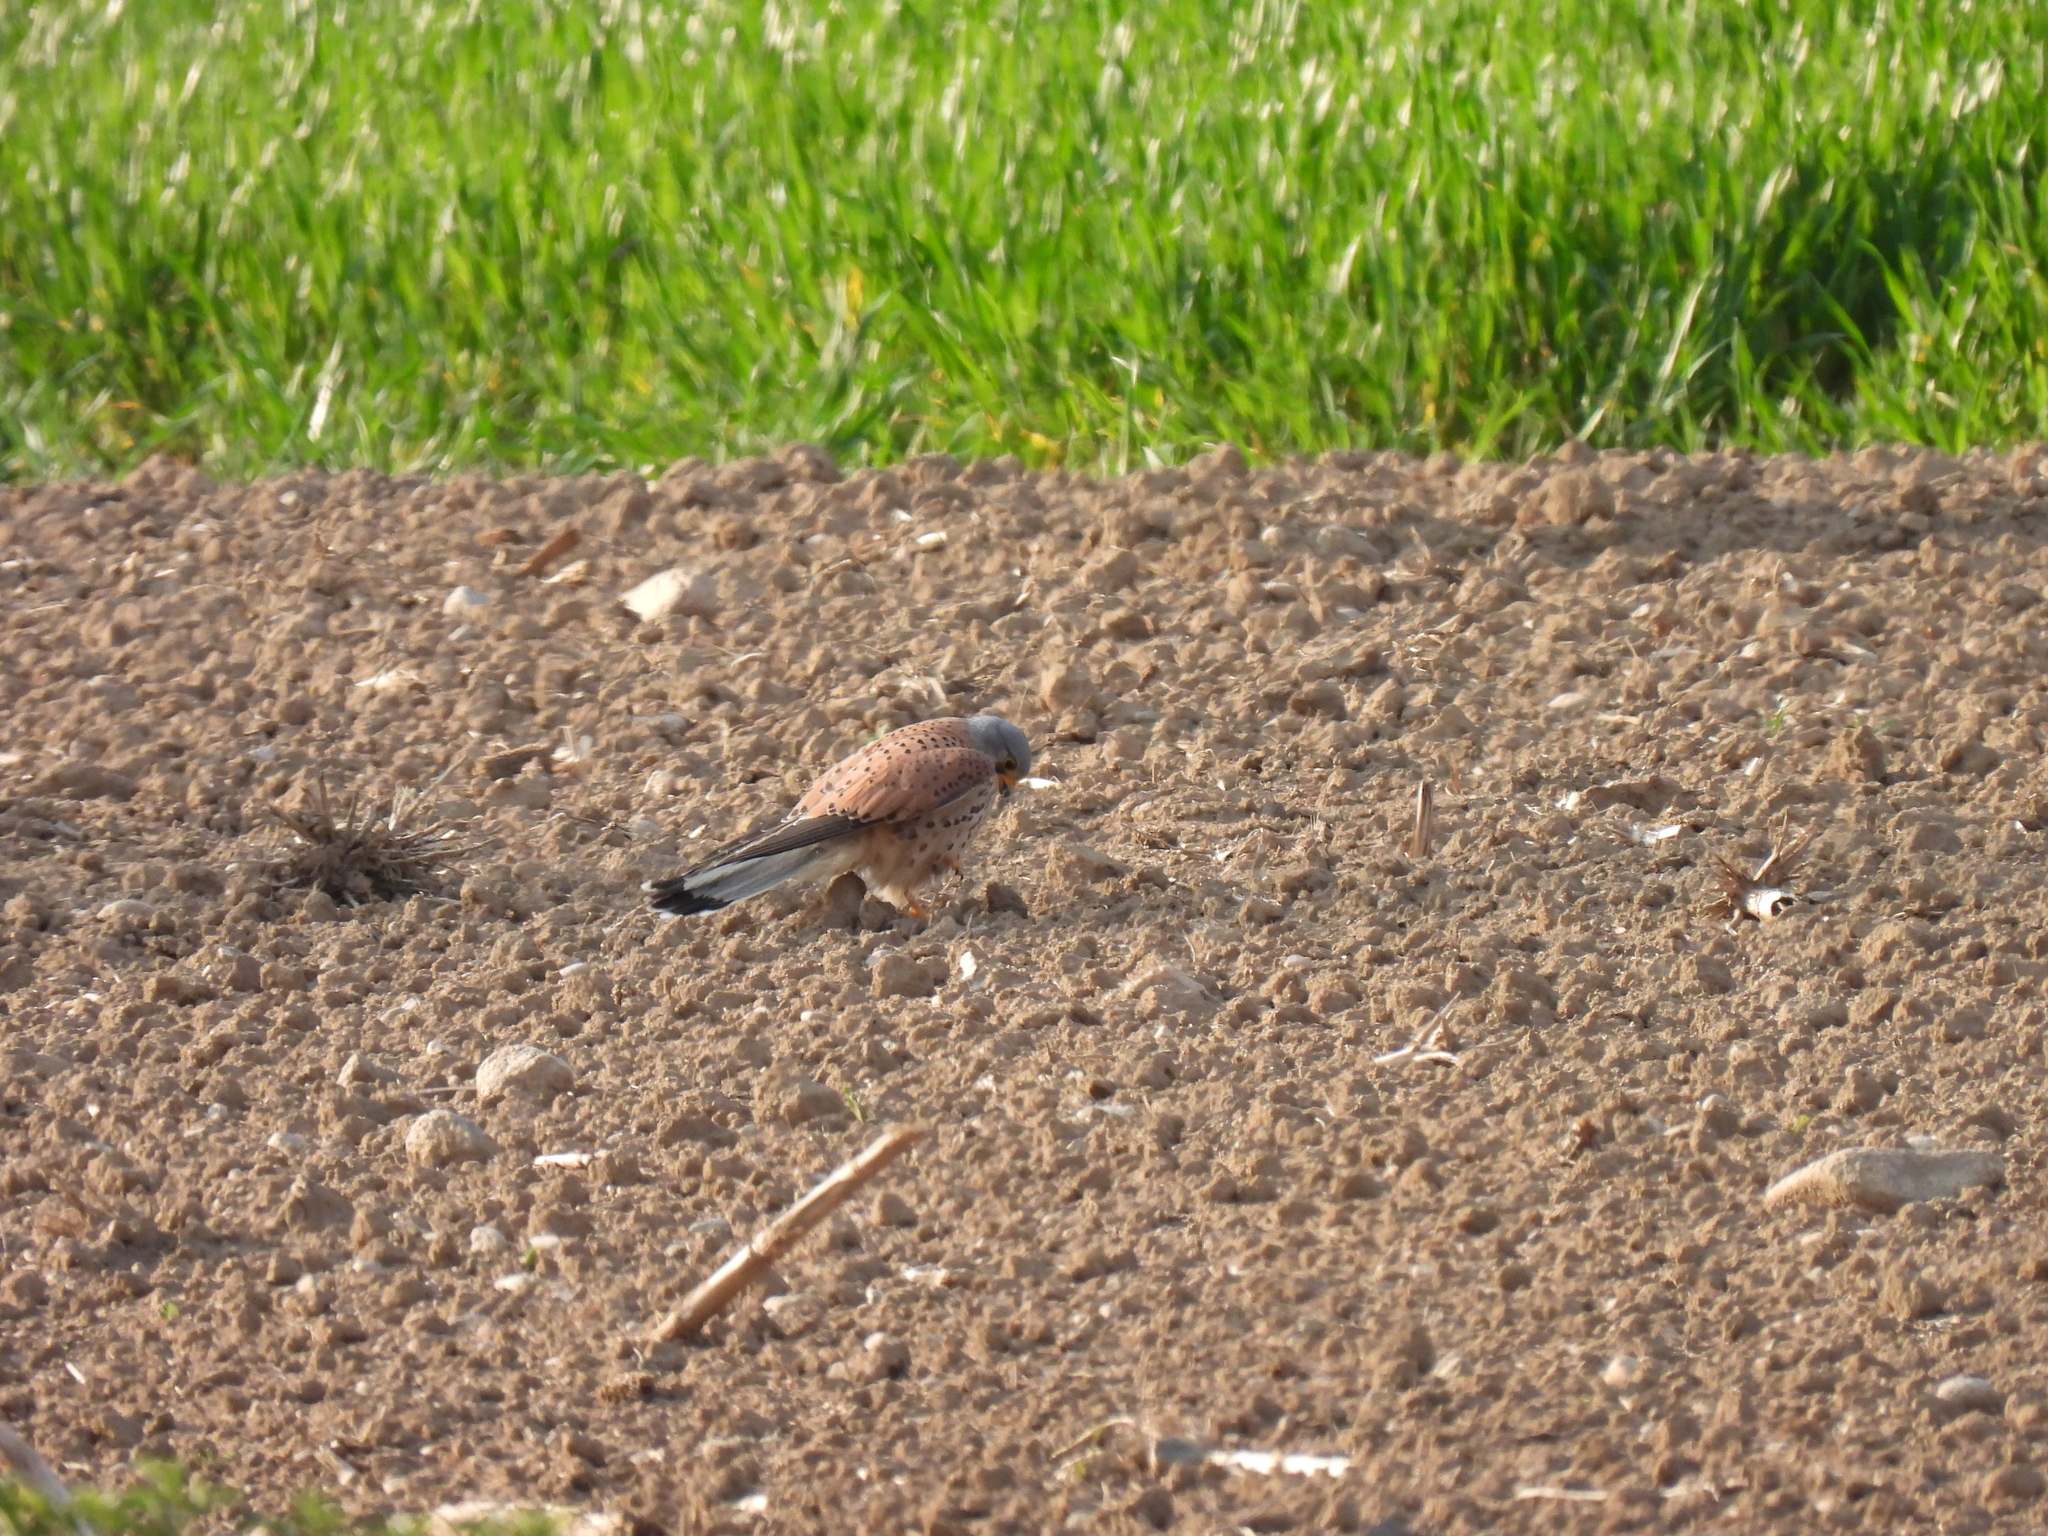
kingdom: Animalia
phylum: Chordata
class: Aves
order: Falconiformes
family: Falconidae
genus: Falco
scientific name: Falco tinnunculus
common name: Common kestrel
